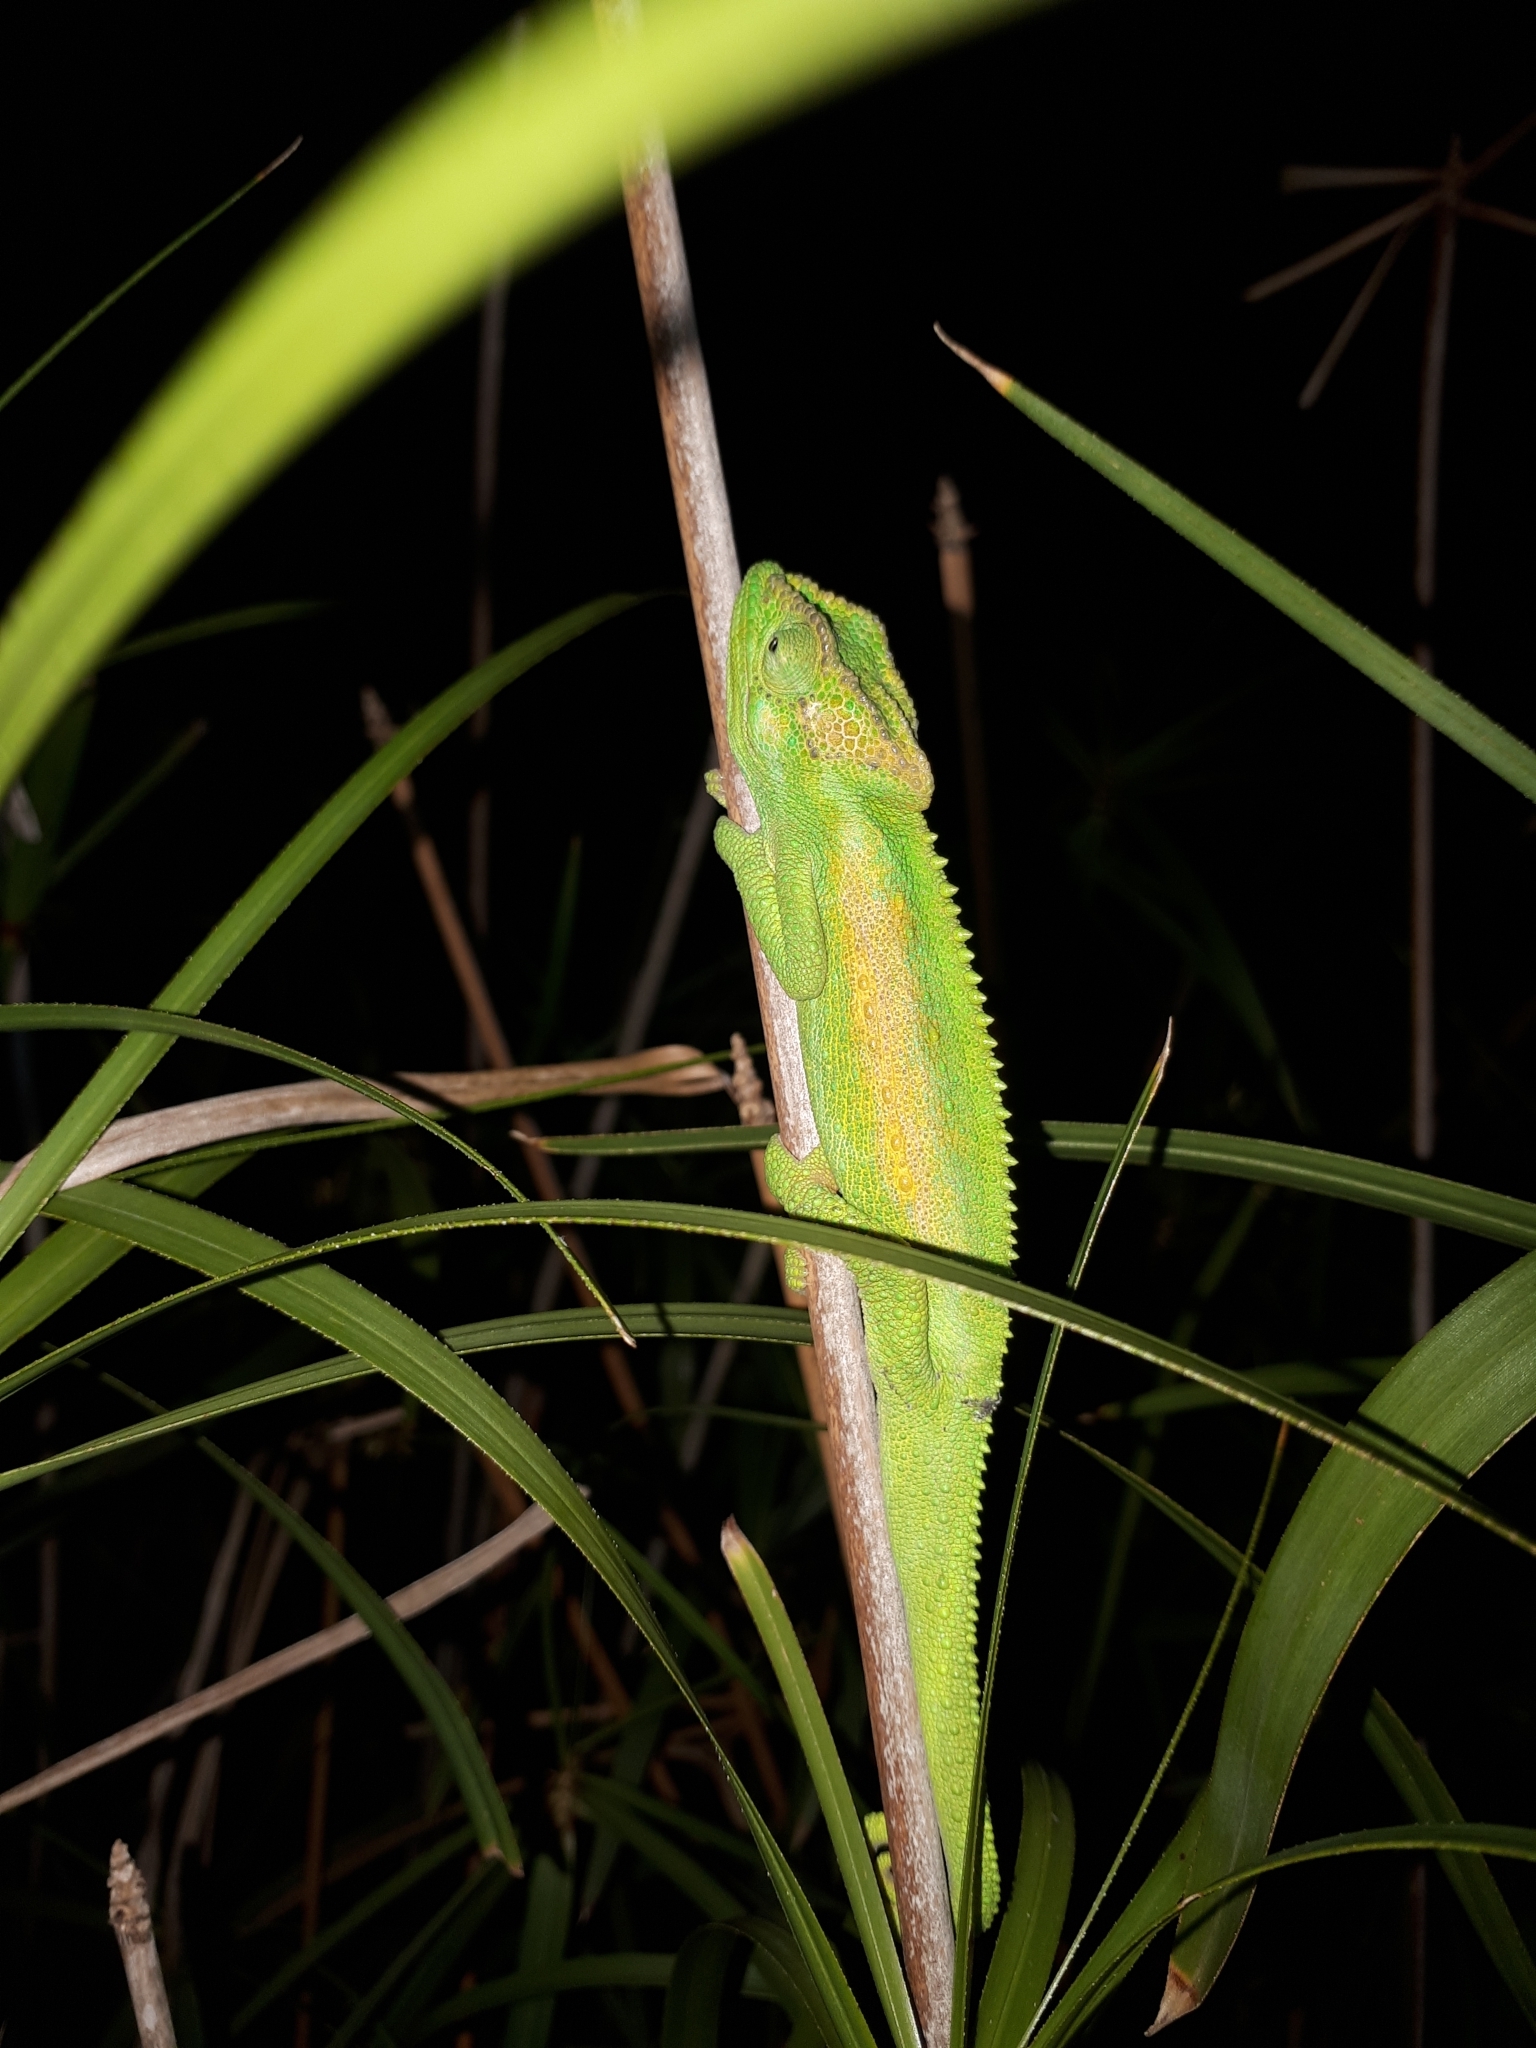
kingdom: Animalia
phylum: Chordata
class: Squamata
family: Chamaeleonidae
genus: Bradypodion
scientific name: Bradypodion pumilum
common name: Cape dwarf chameleon
